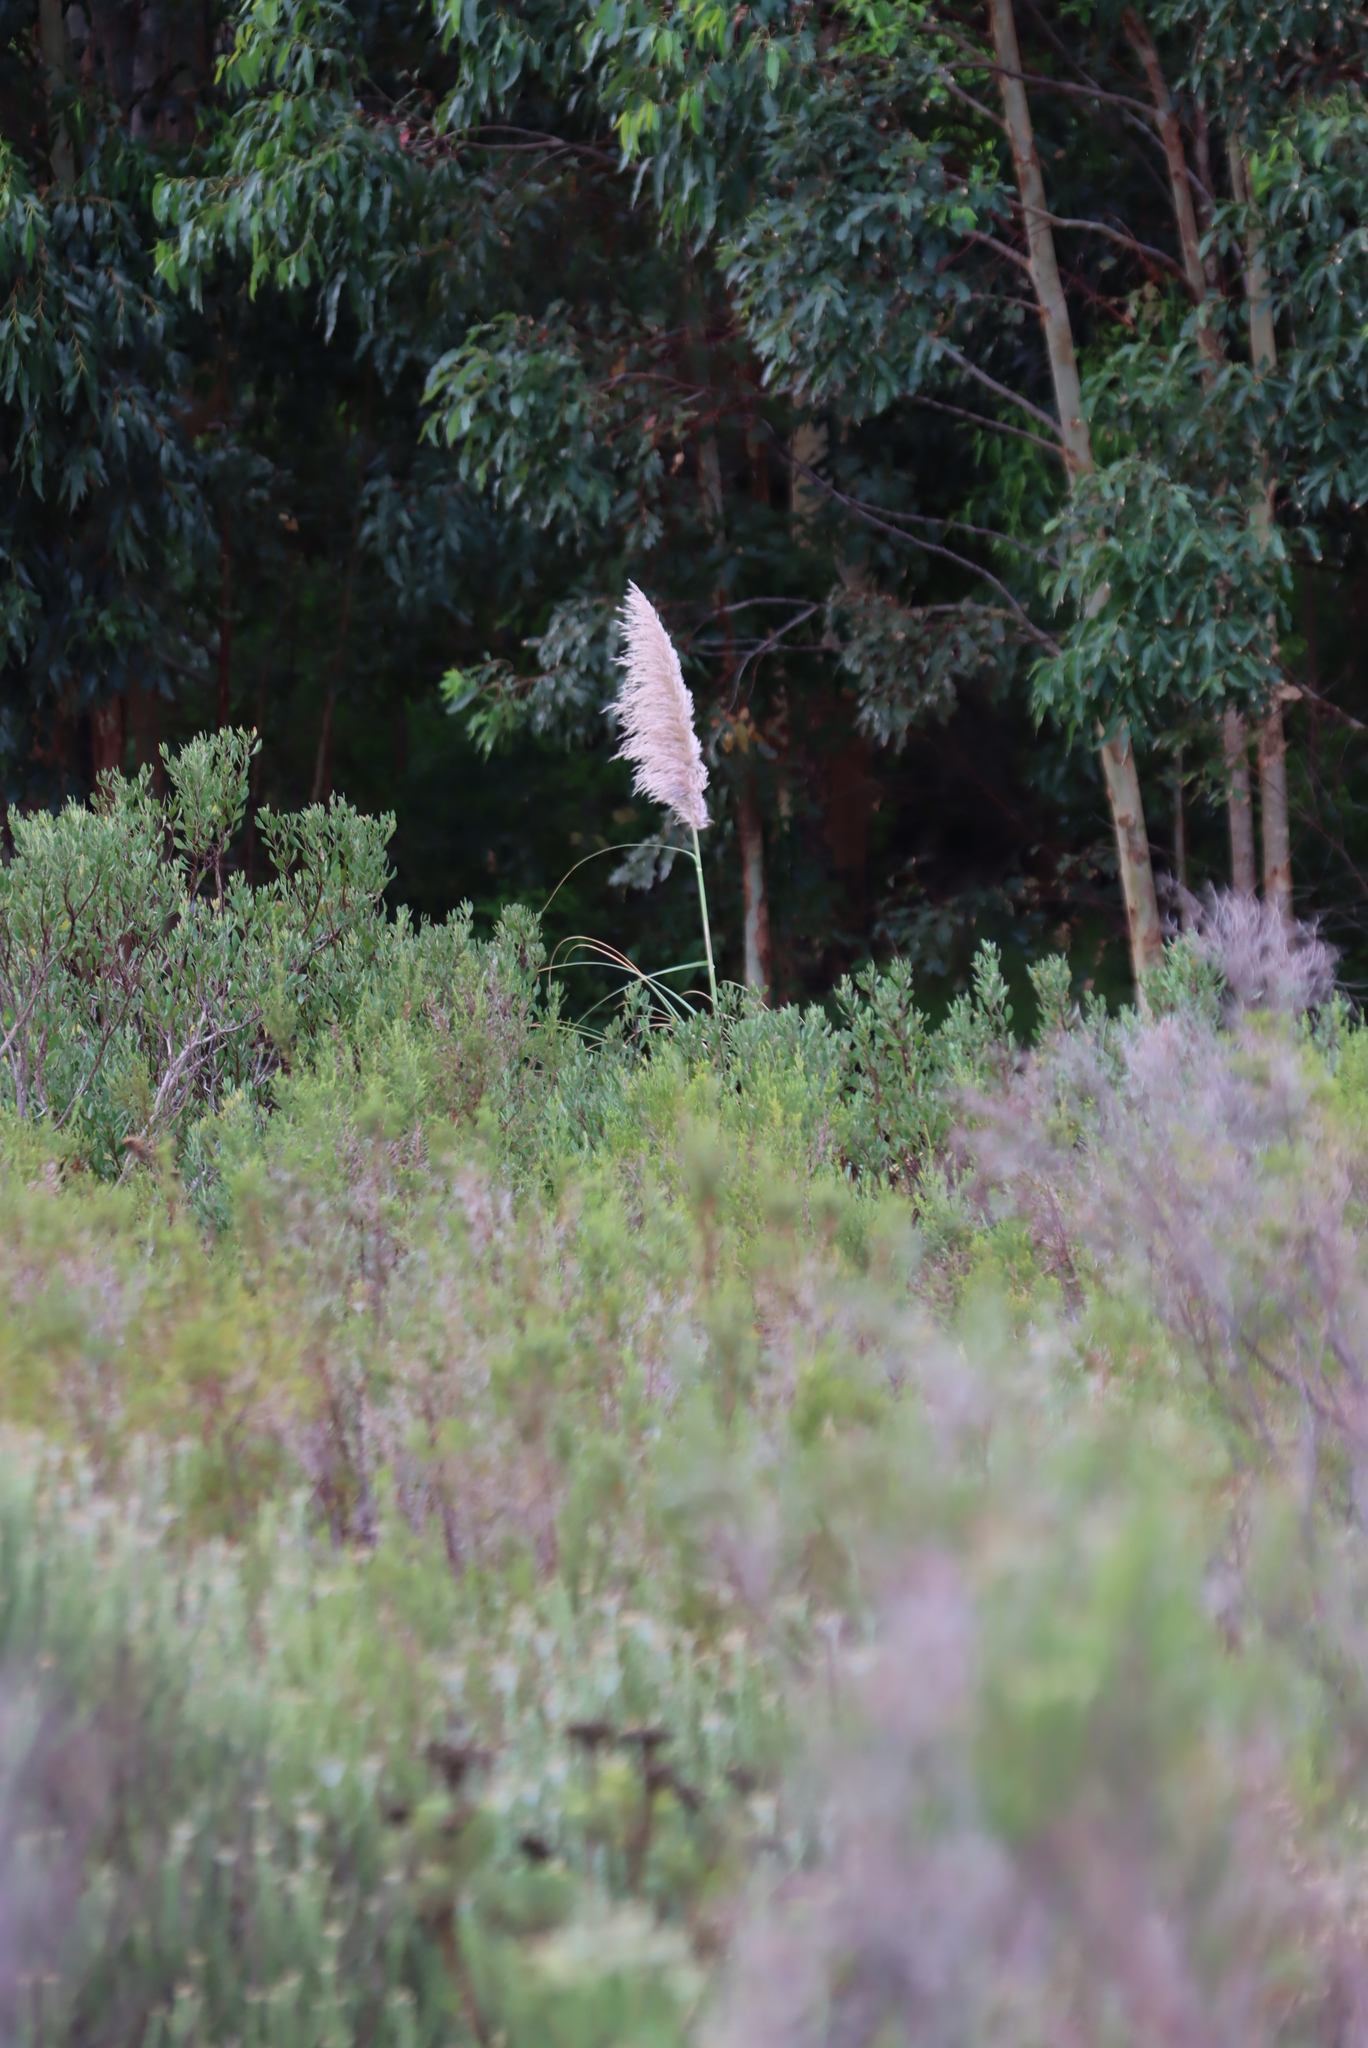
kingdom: Plantae
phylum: Tracheophyta
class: Liliopsida
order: Poales
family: Poaceae
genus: Cortaderia
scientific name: Cortaderia selloana
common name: Uruguayan pampas grass
